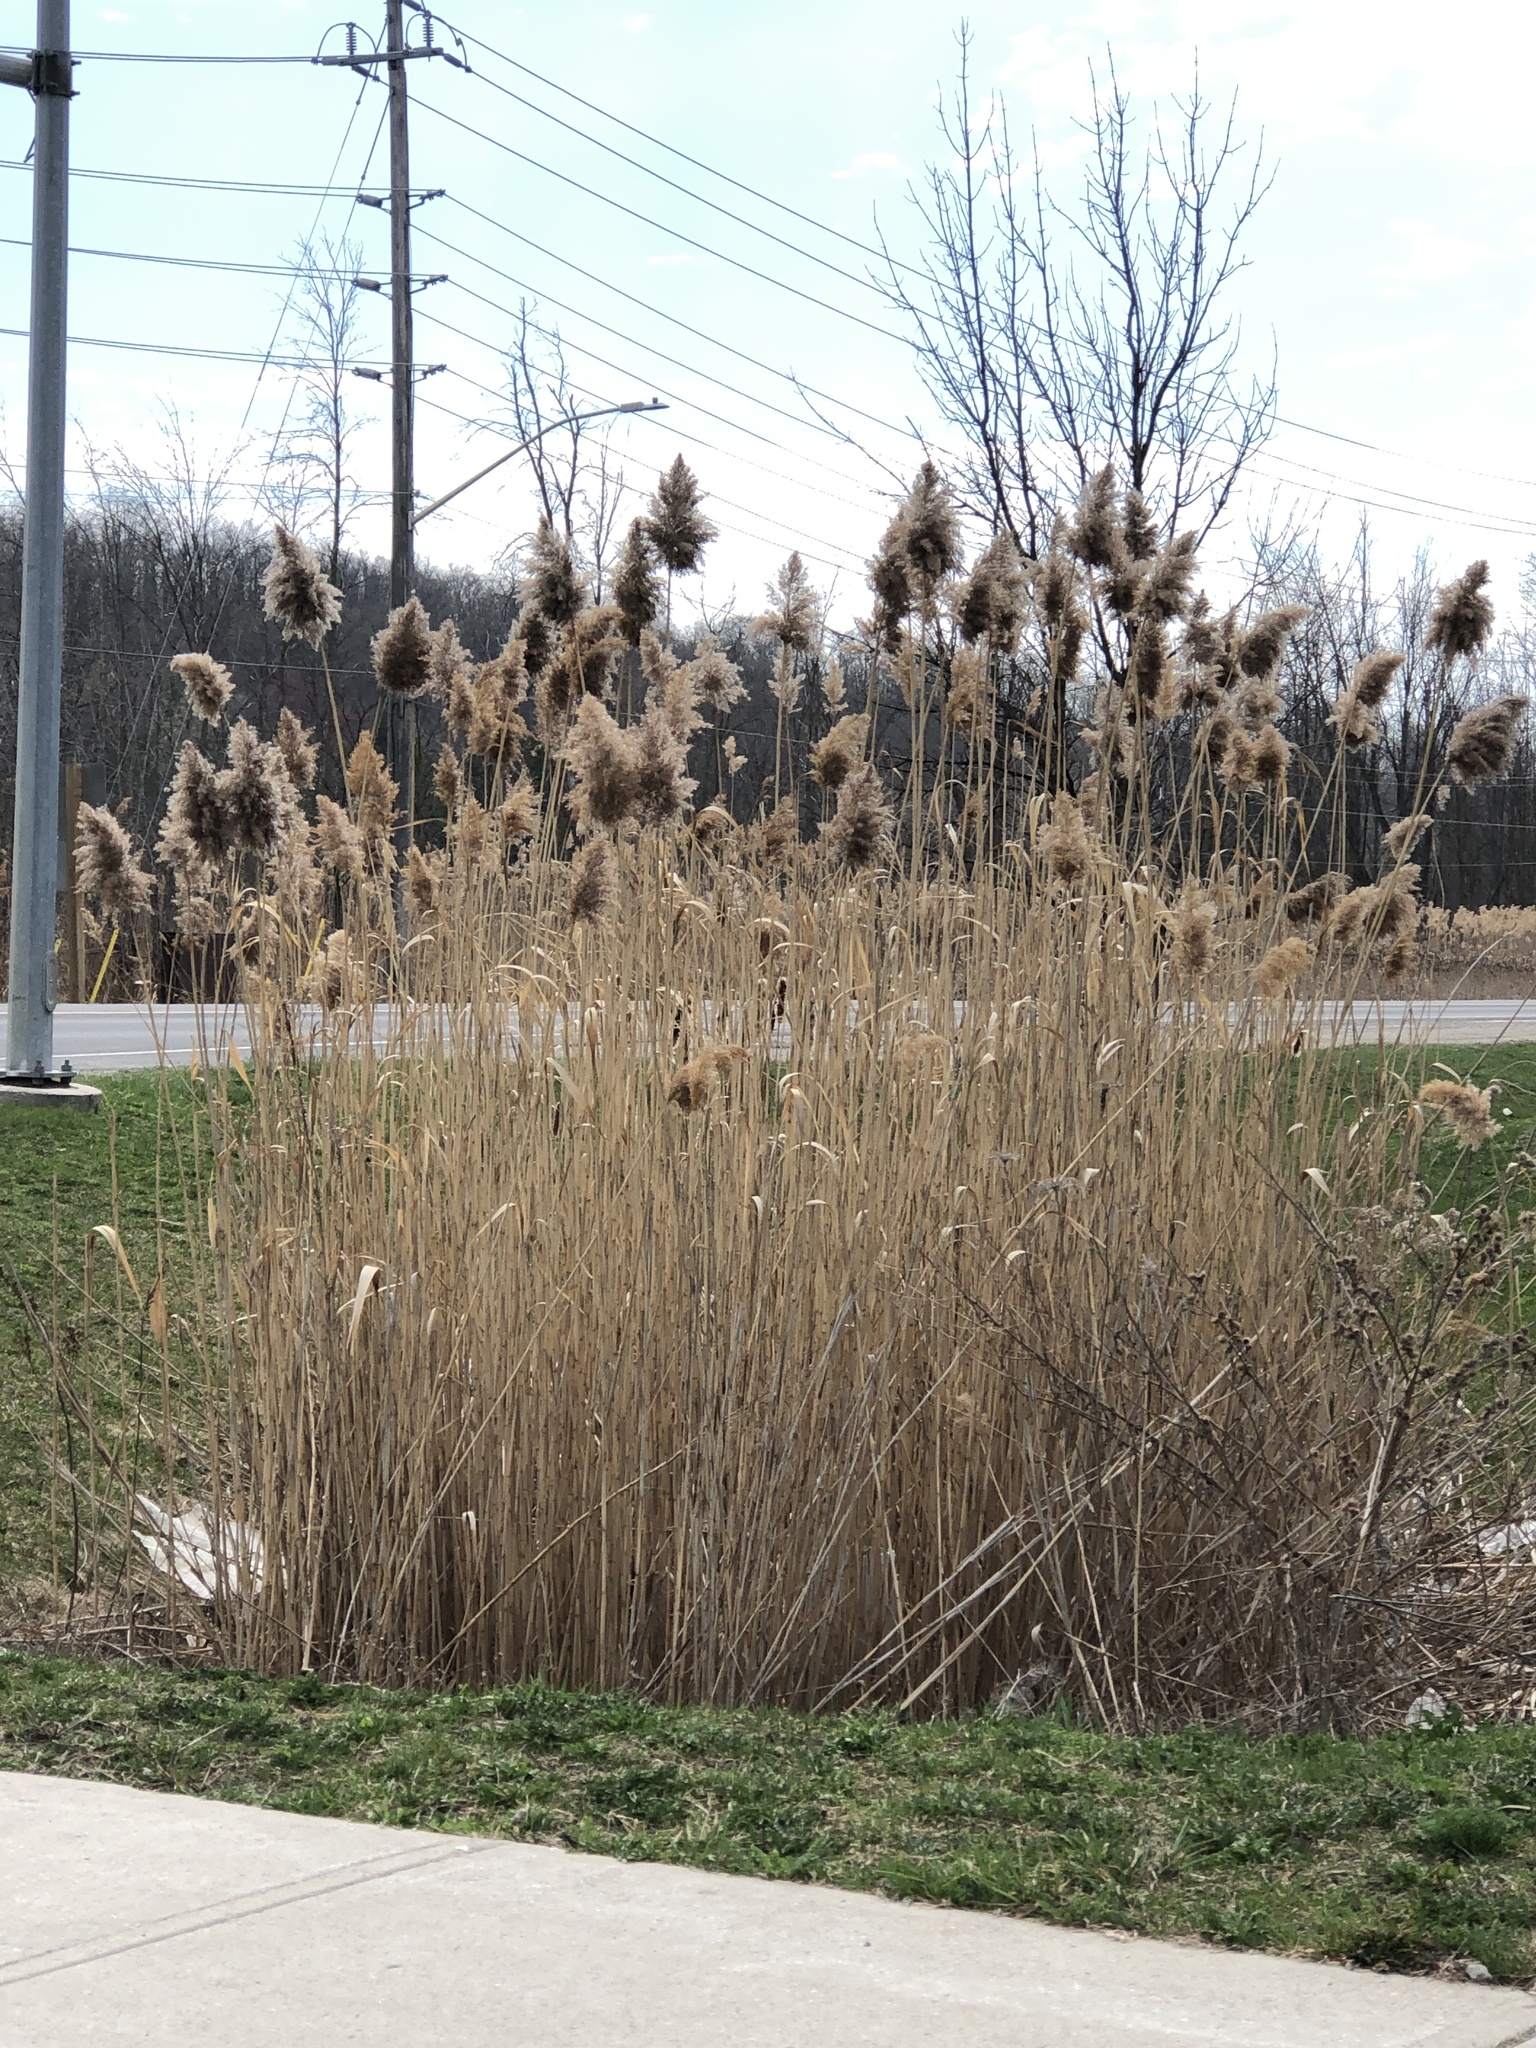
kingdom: Plantae
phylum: Tracheophyta
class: Liliopsida
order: Poales
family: Poaceae
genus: Phragmites
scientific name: Phragmites australis
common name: Common reed
